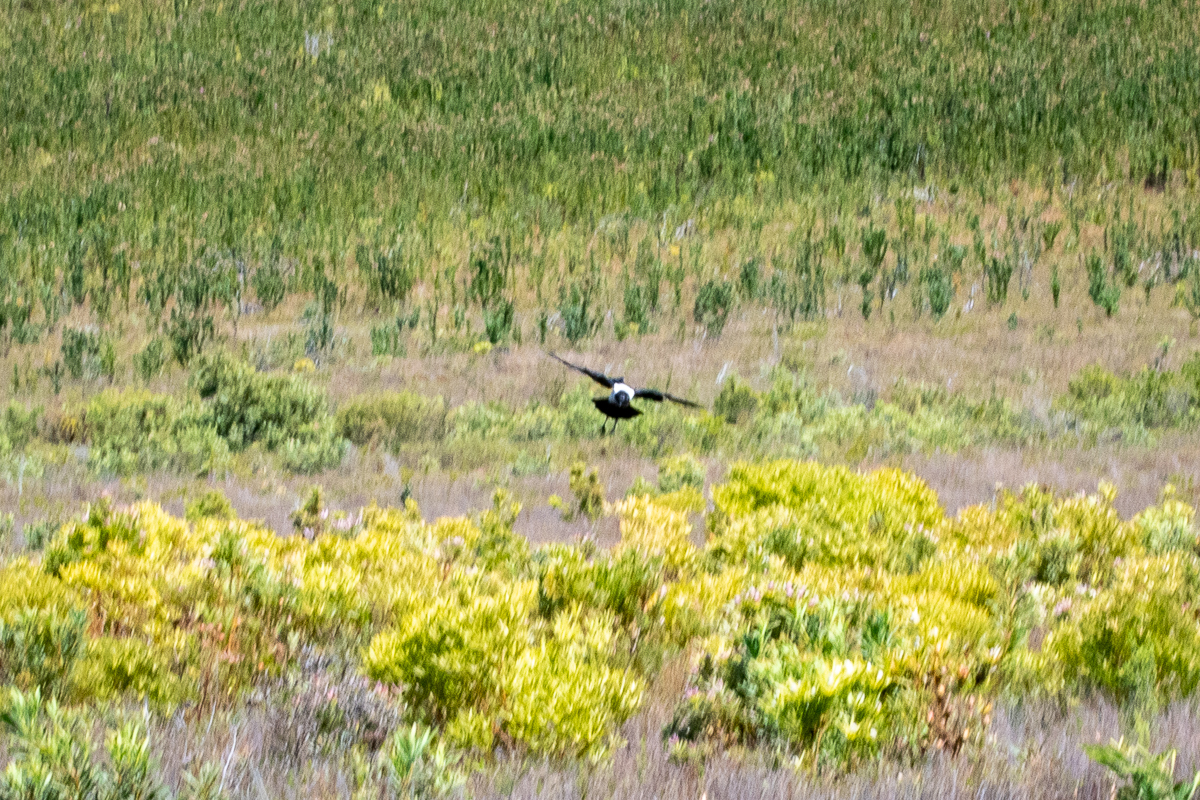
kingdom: Animalia
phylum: Chordata
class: Aves
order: Passeriformes
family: Corvidae
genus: Corvus
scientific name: Corvus albus
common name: Pied crow
